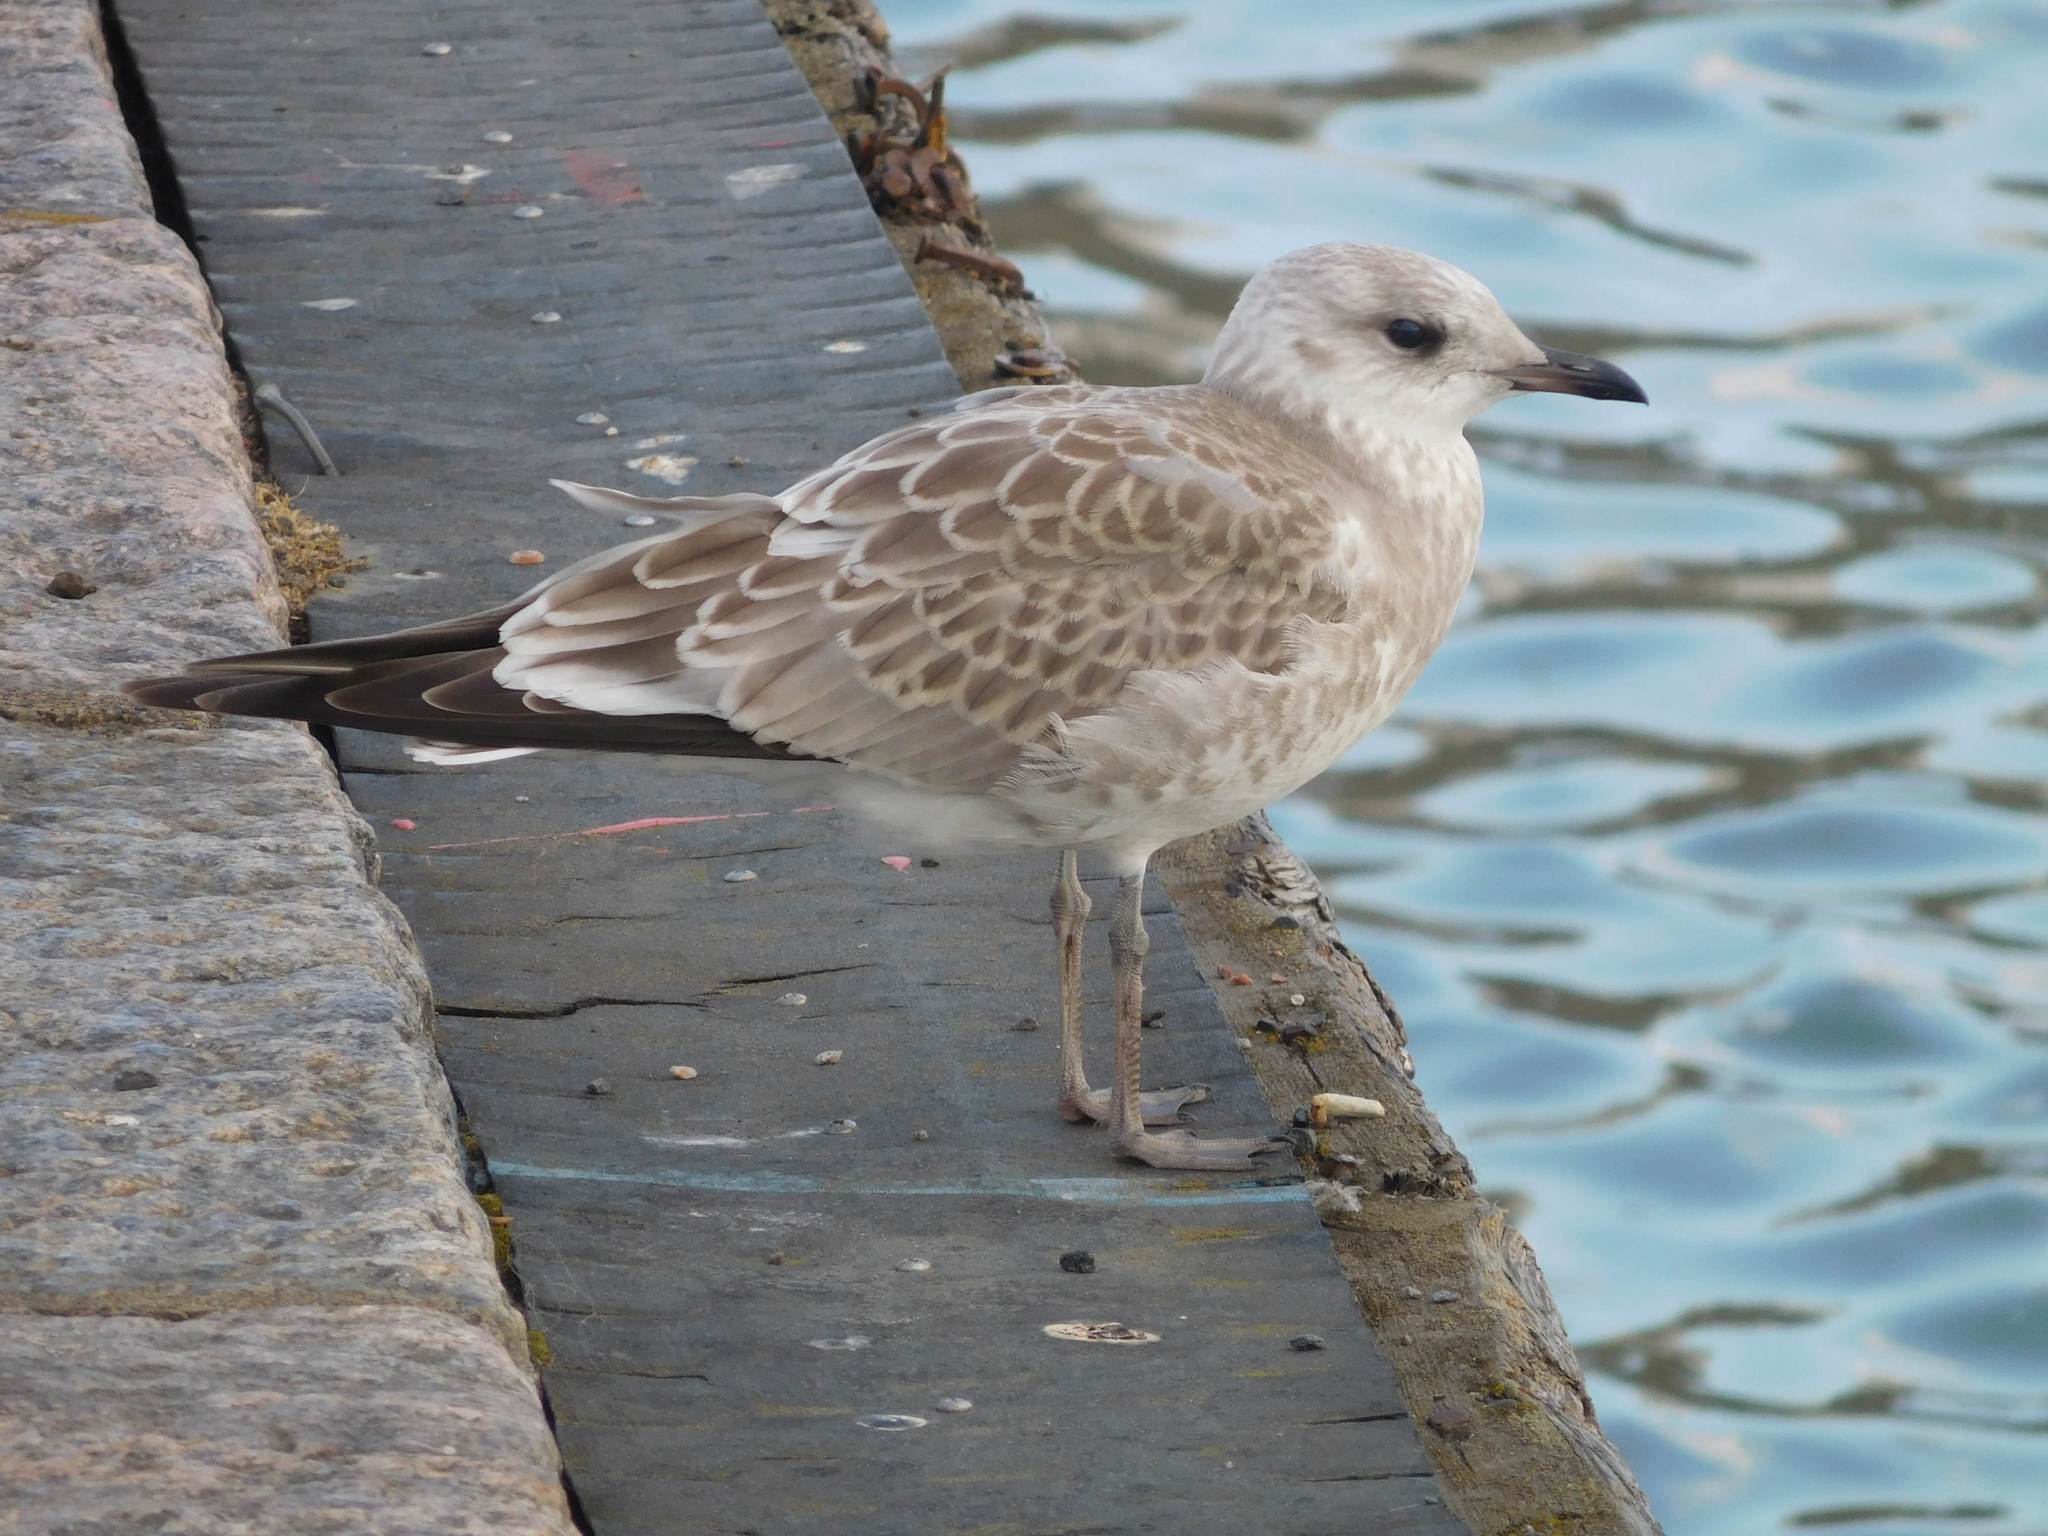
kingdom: Animalia
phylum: Chordata
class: Aves
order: Charadriiformes
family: Laridae
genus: Larus
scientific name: Larus canus
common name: Mew gull
